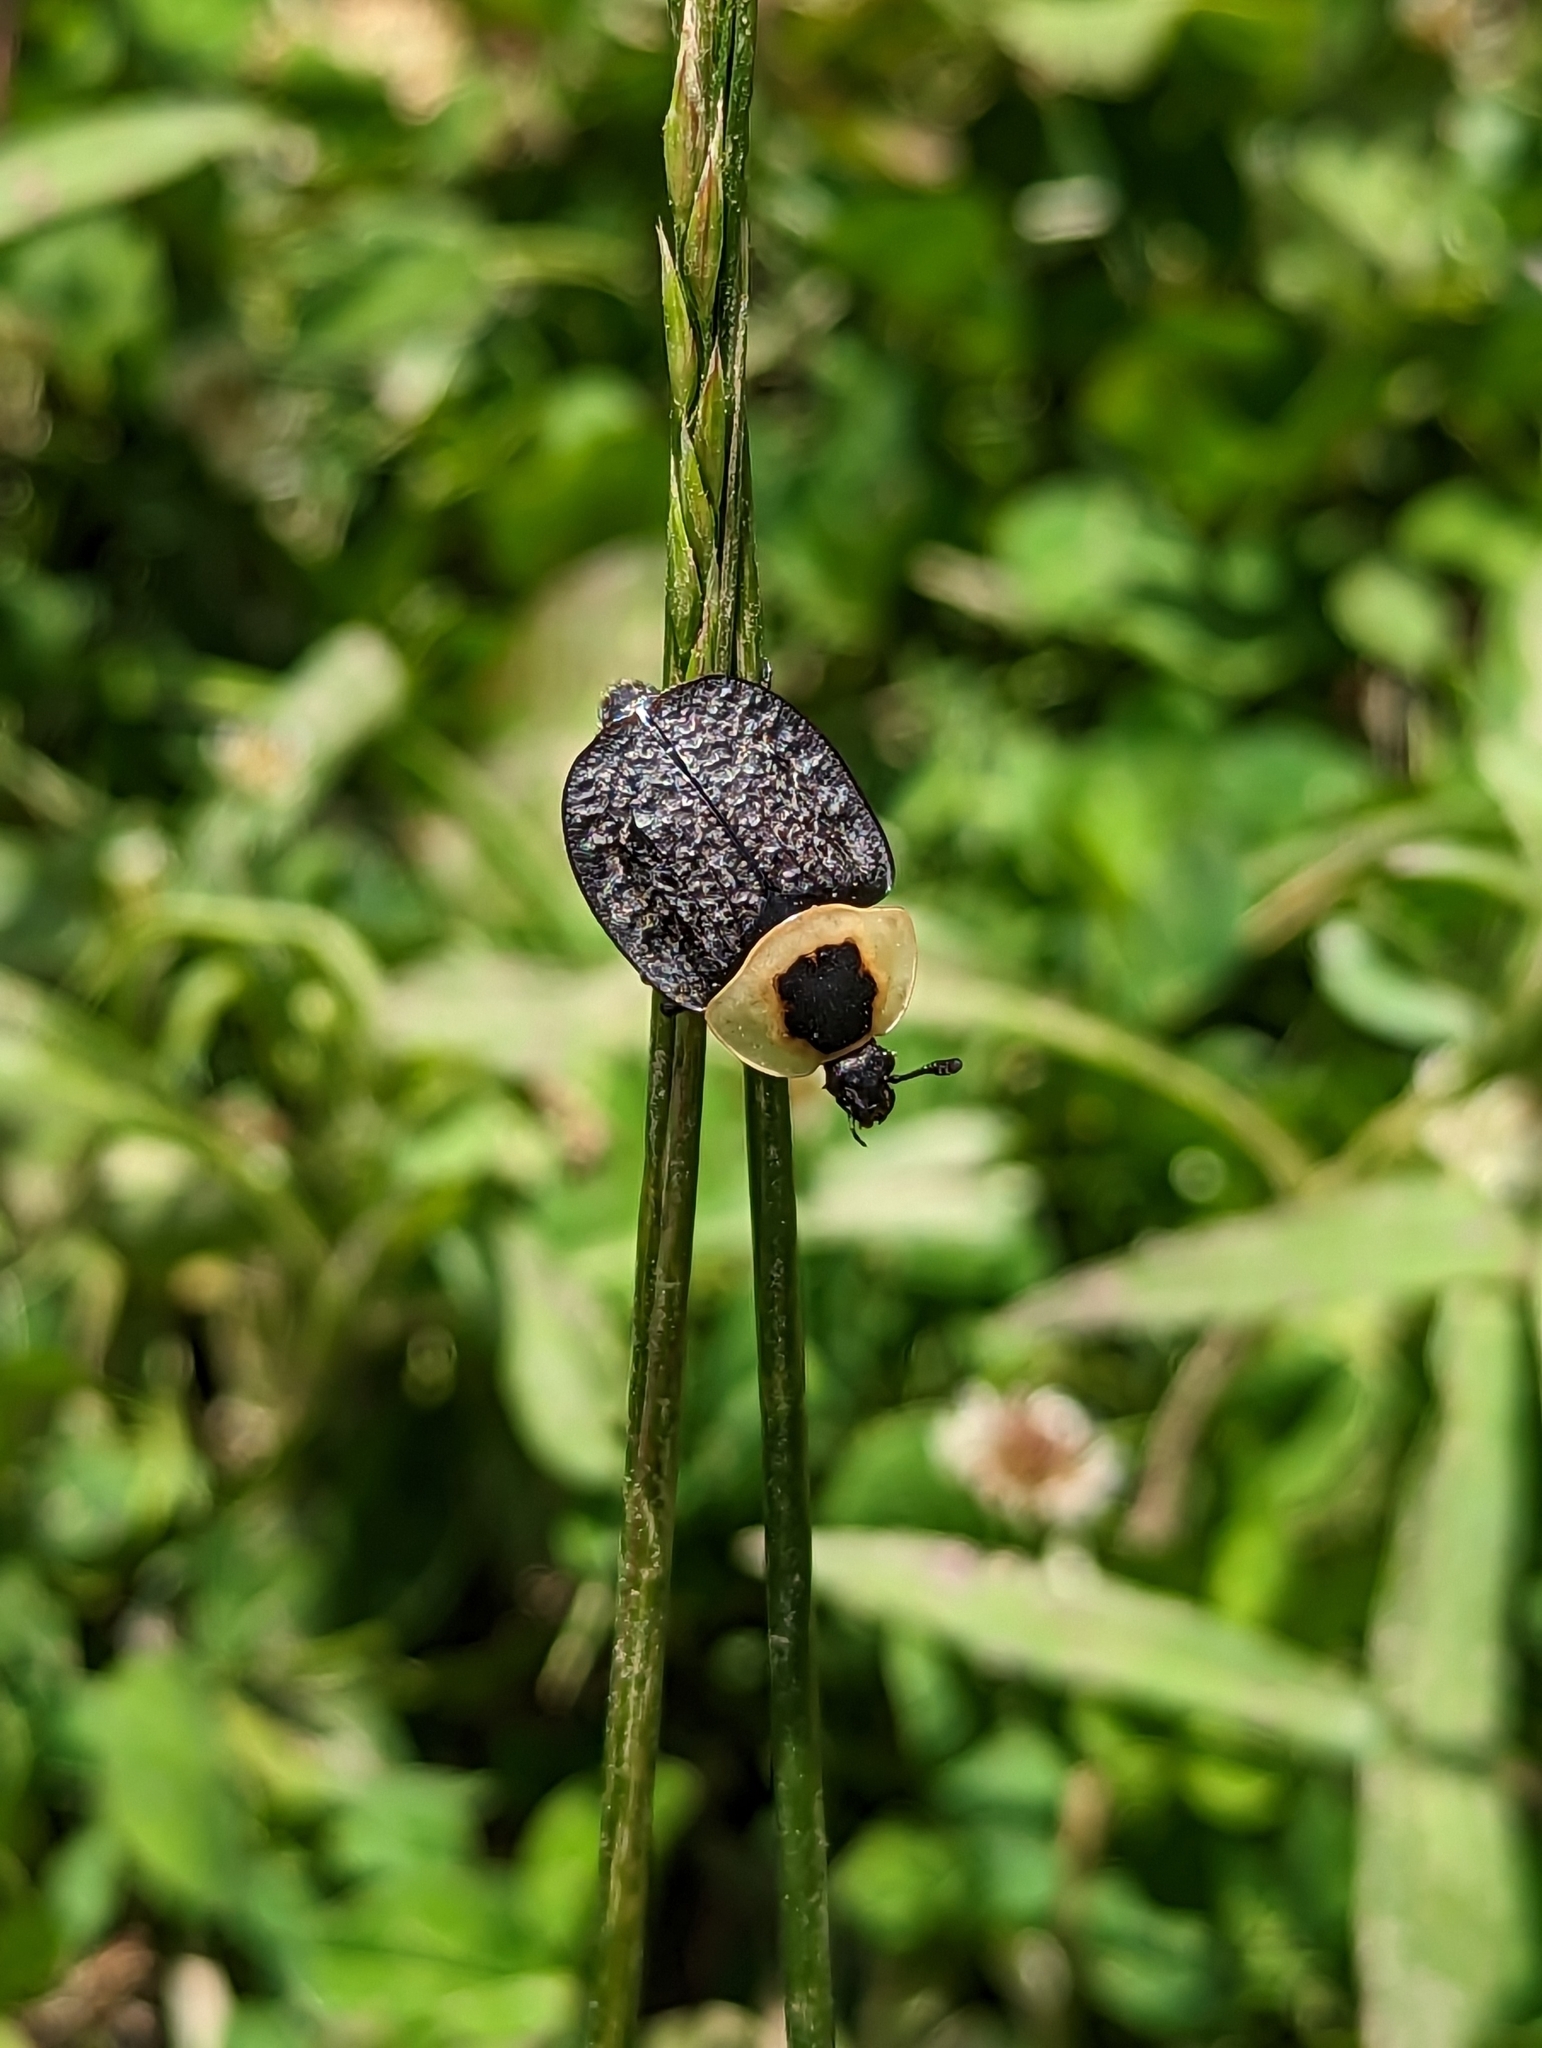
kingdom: Animalia
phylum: Arthropoda
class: Insecta
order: Coleoptera
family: Staphylinidae
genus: Necrophila
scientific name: Necrophila americana
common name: American carrion beetle
